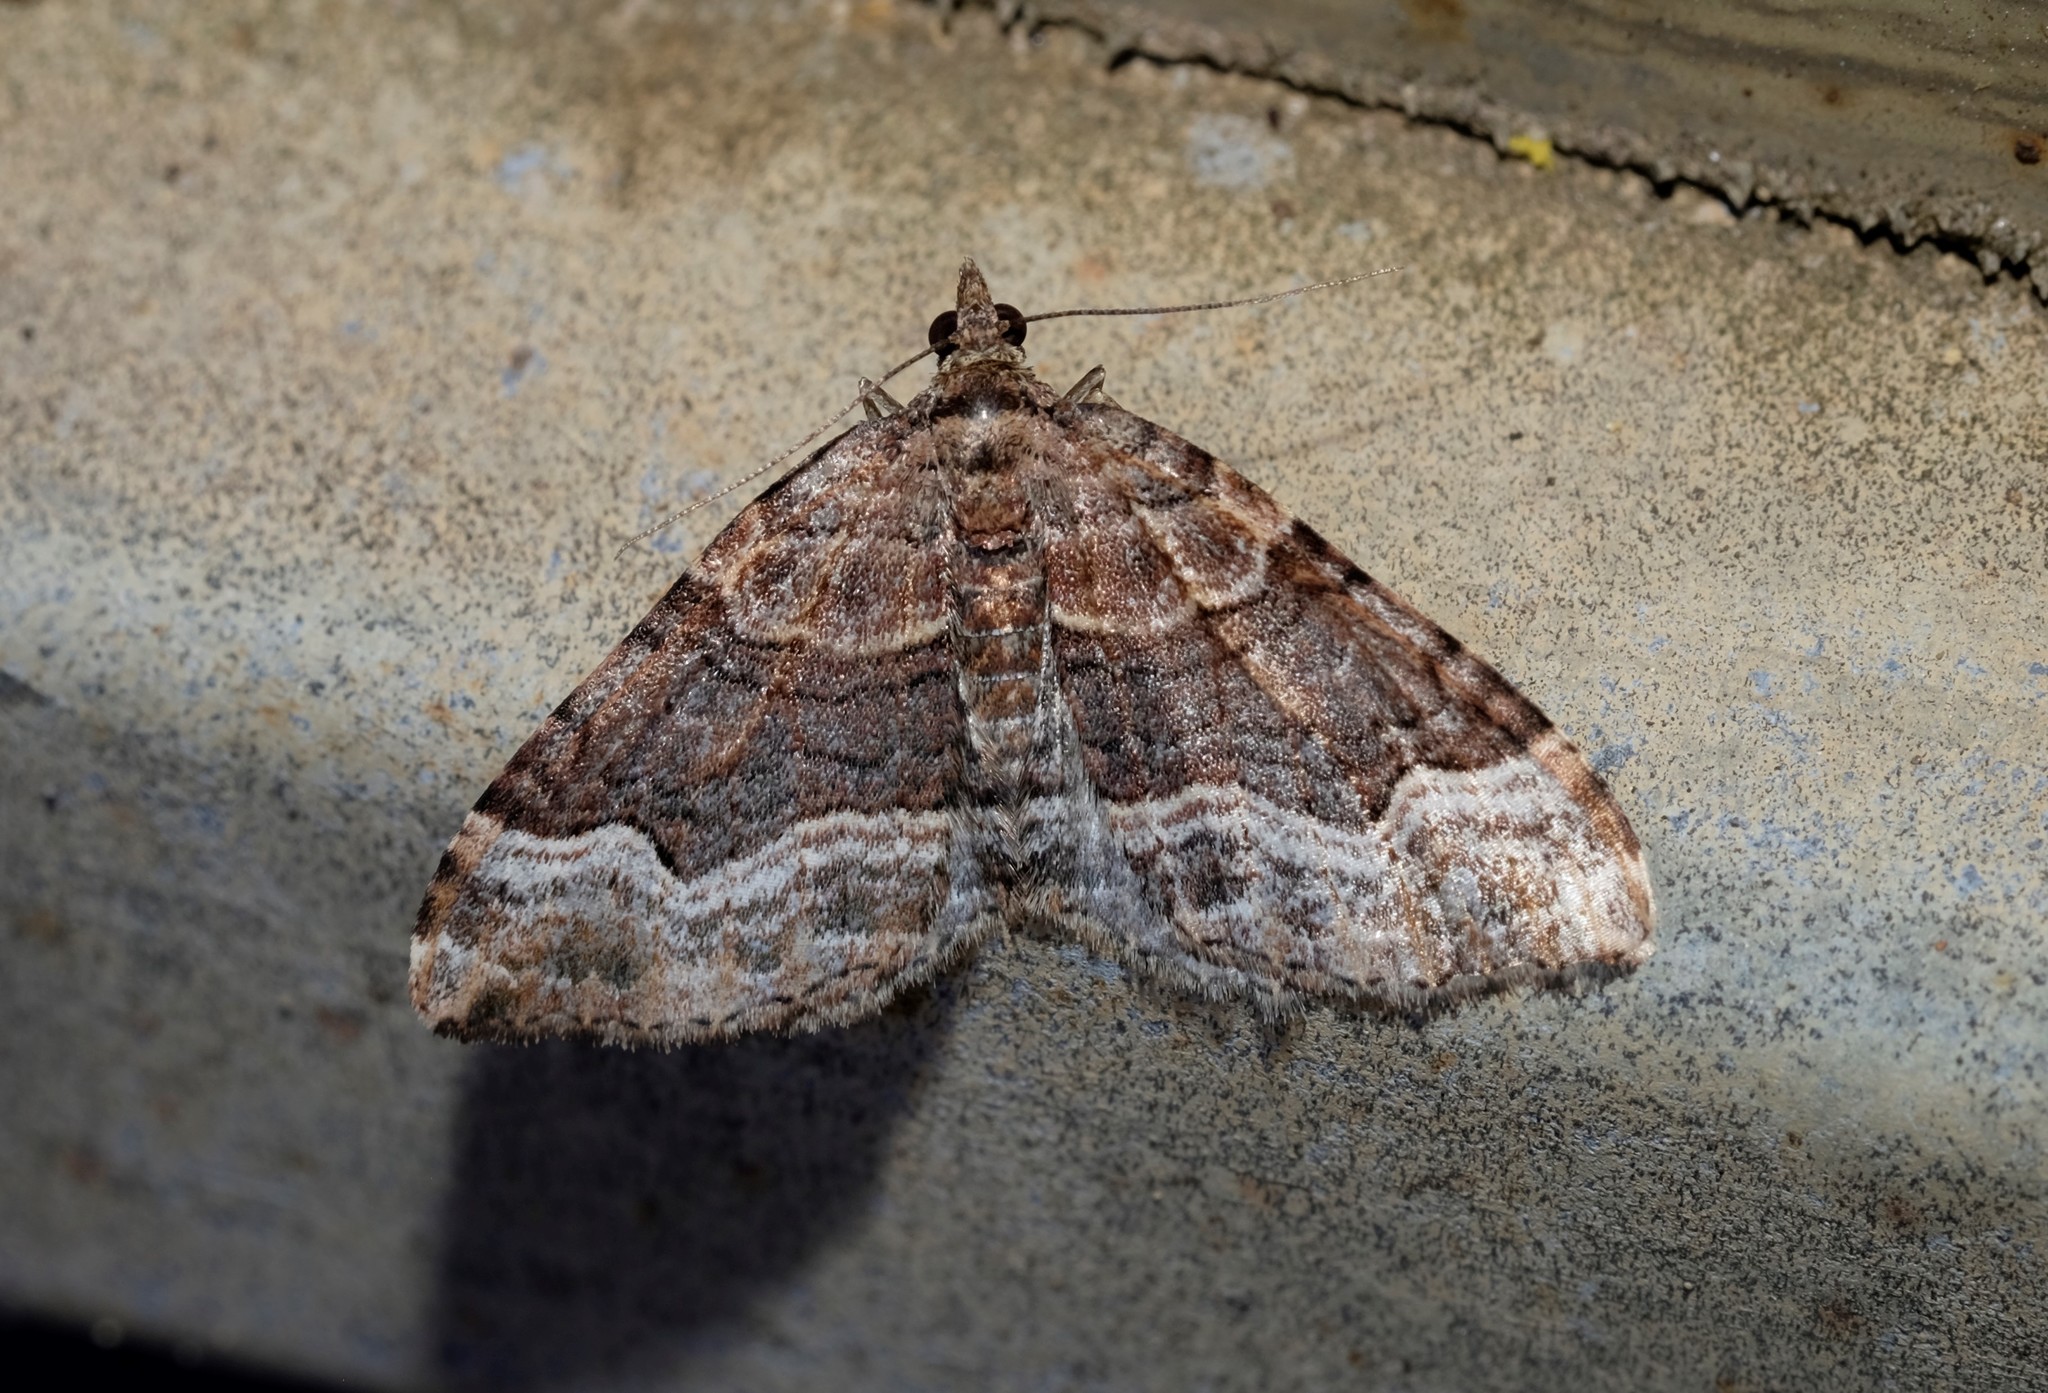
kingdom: Animalia
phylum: Arthropoda
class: Insecta
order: Lepidoptera
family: Geometridae
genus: Epyaxa
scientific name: Epyaxa subidaria
